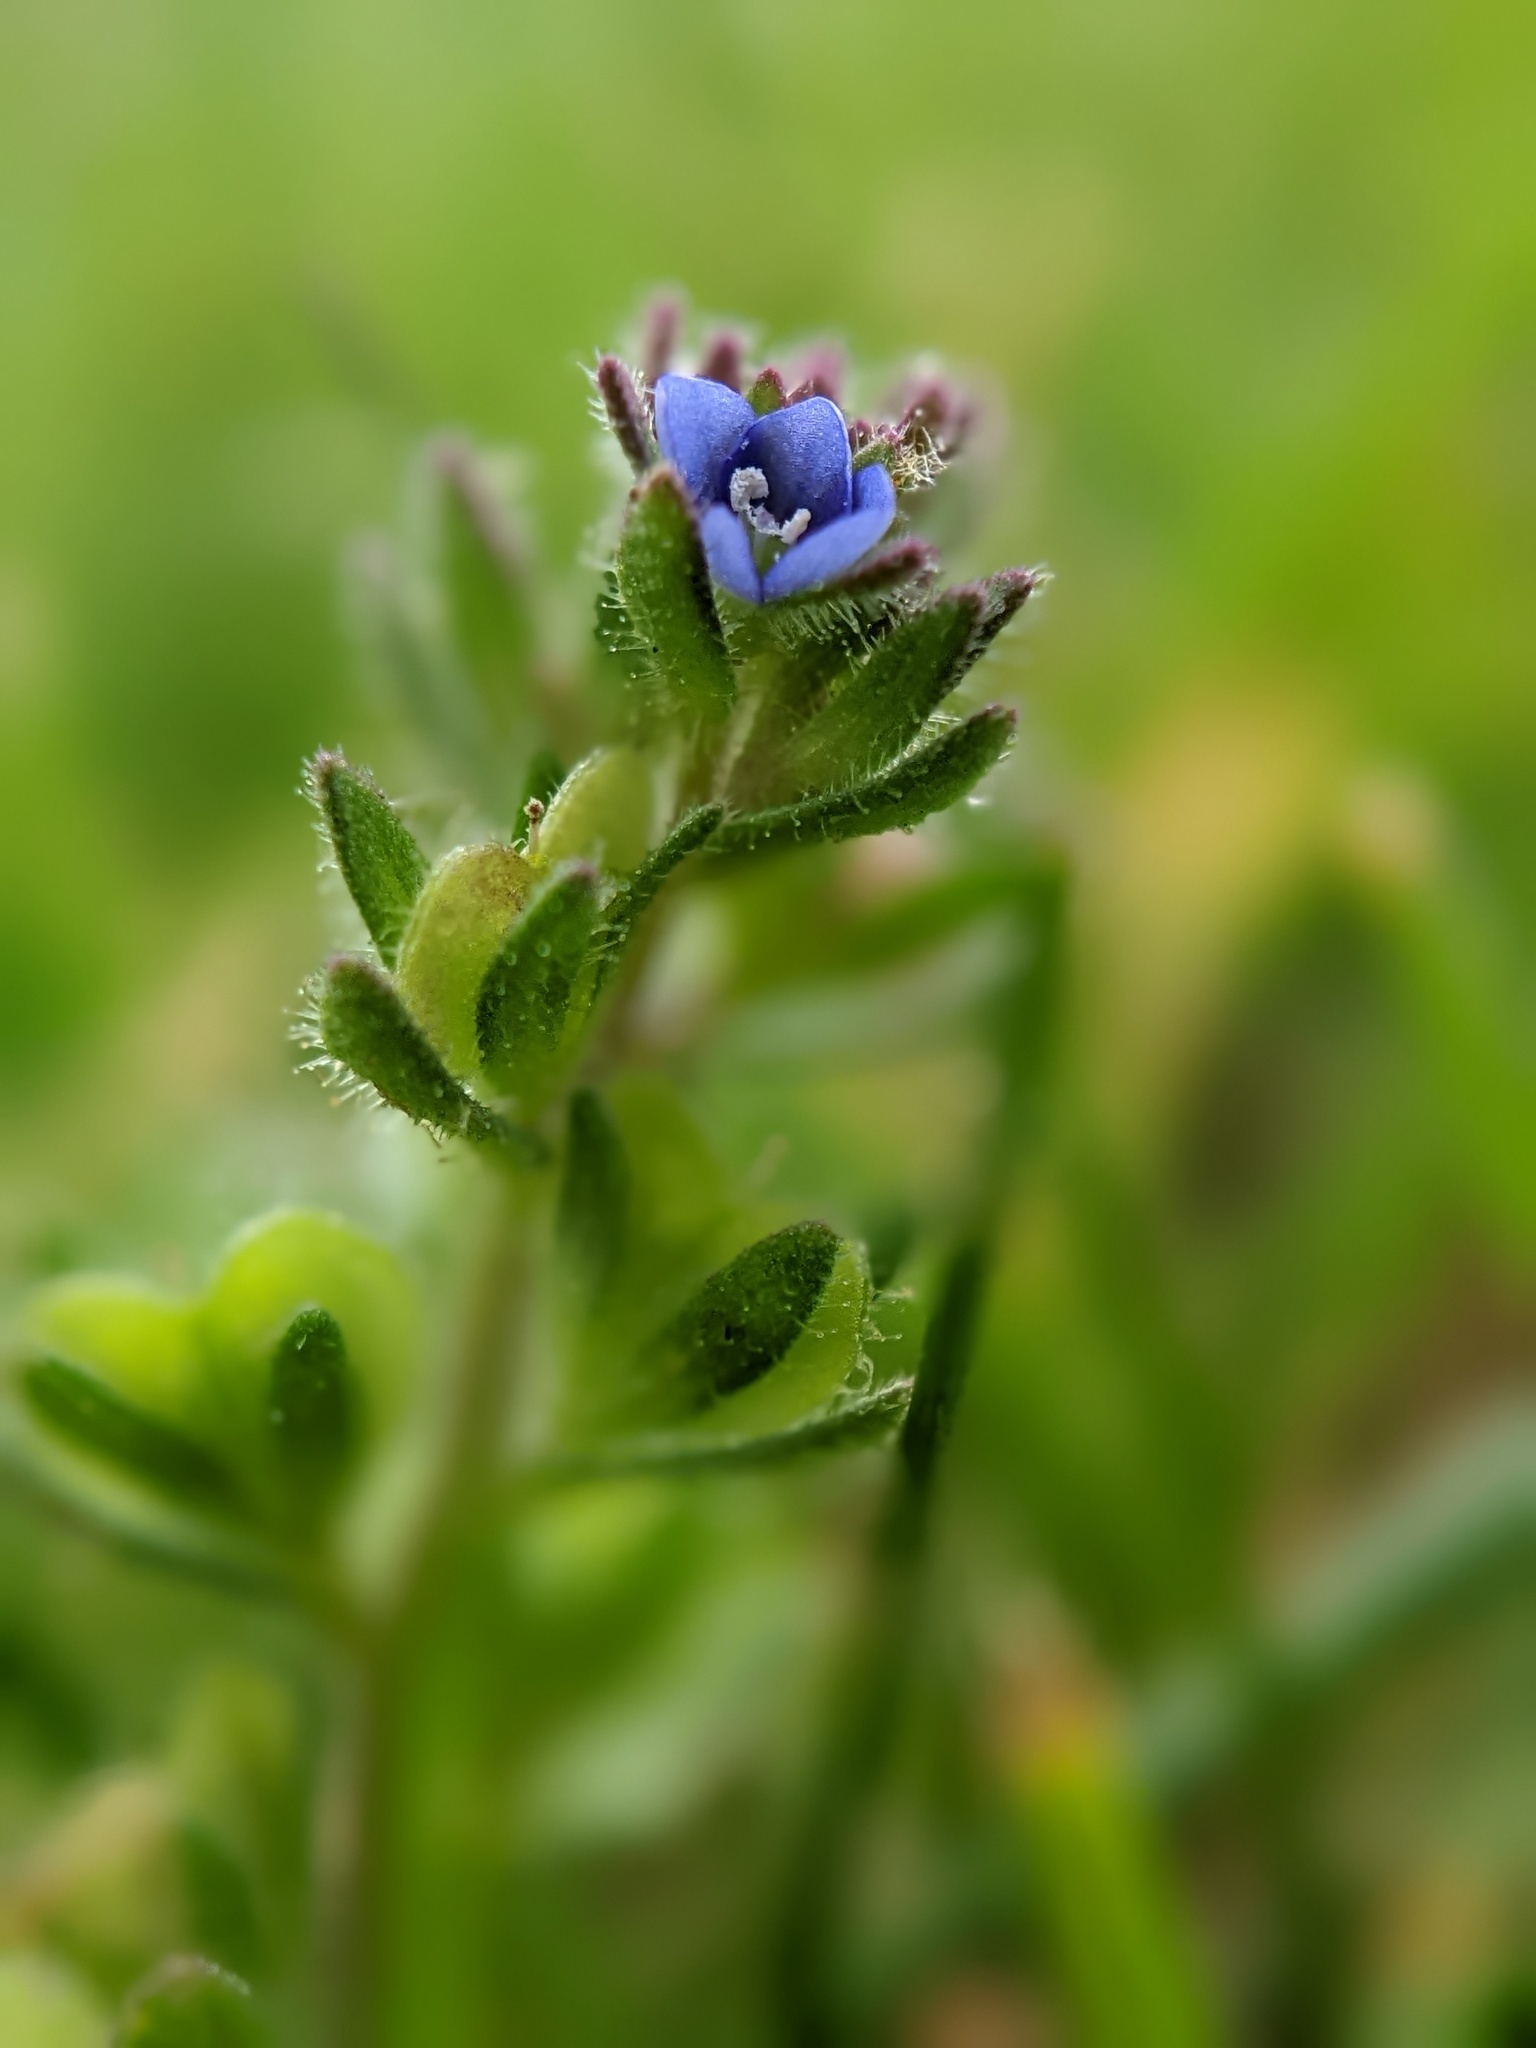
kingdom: Plantae
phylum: Tracheophyta
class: Magnoliopsida
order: Lamiales
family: Plantaginaceae
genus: Veronica
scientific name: Veronica arvensis
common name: Corn speedwell
